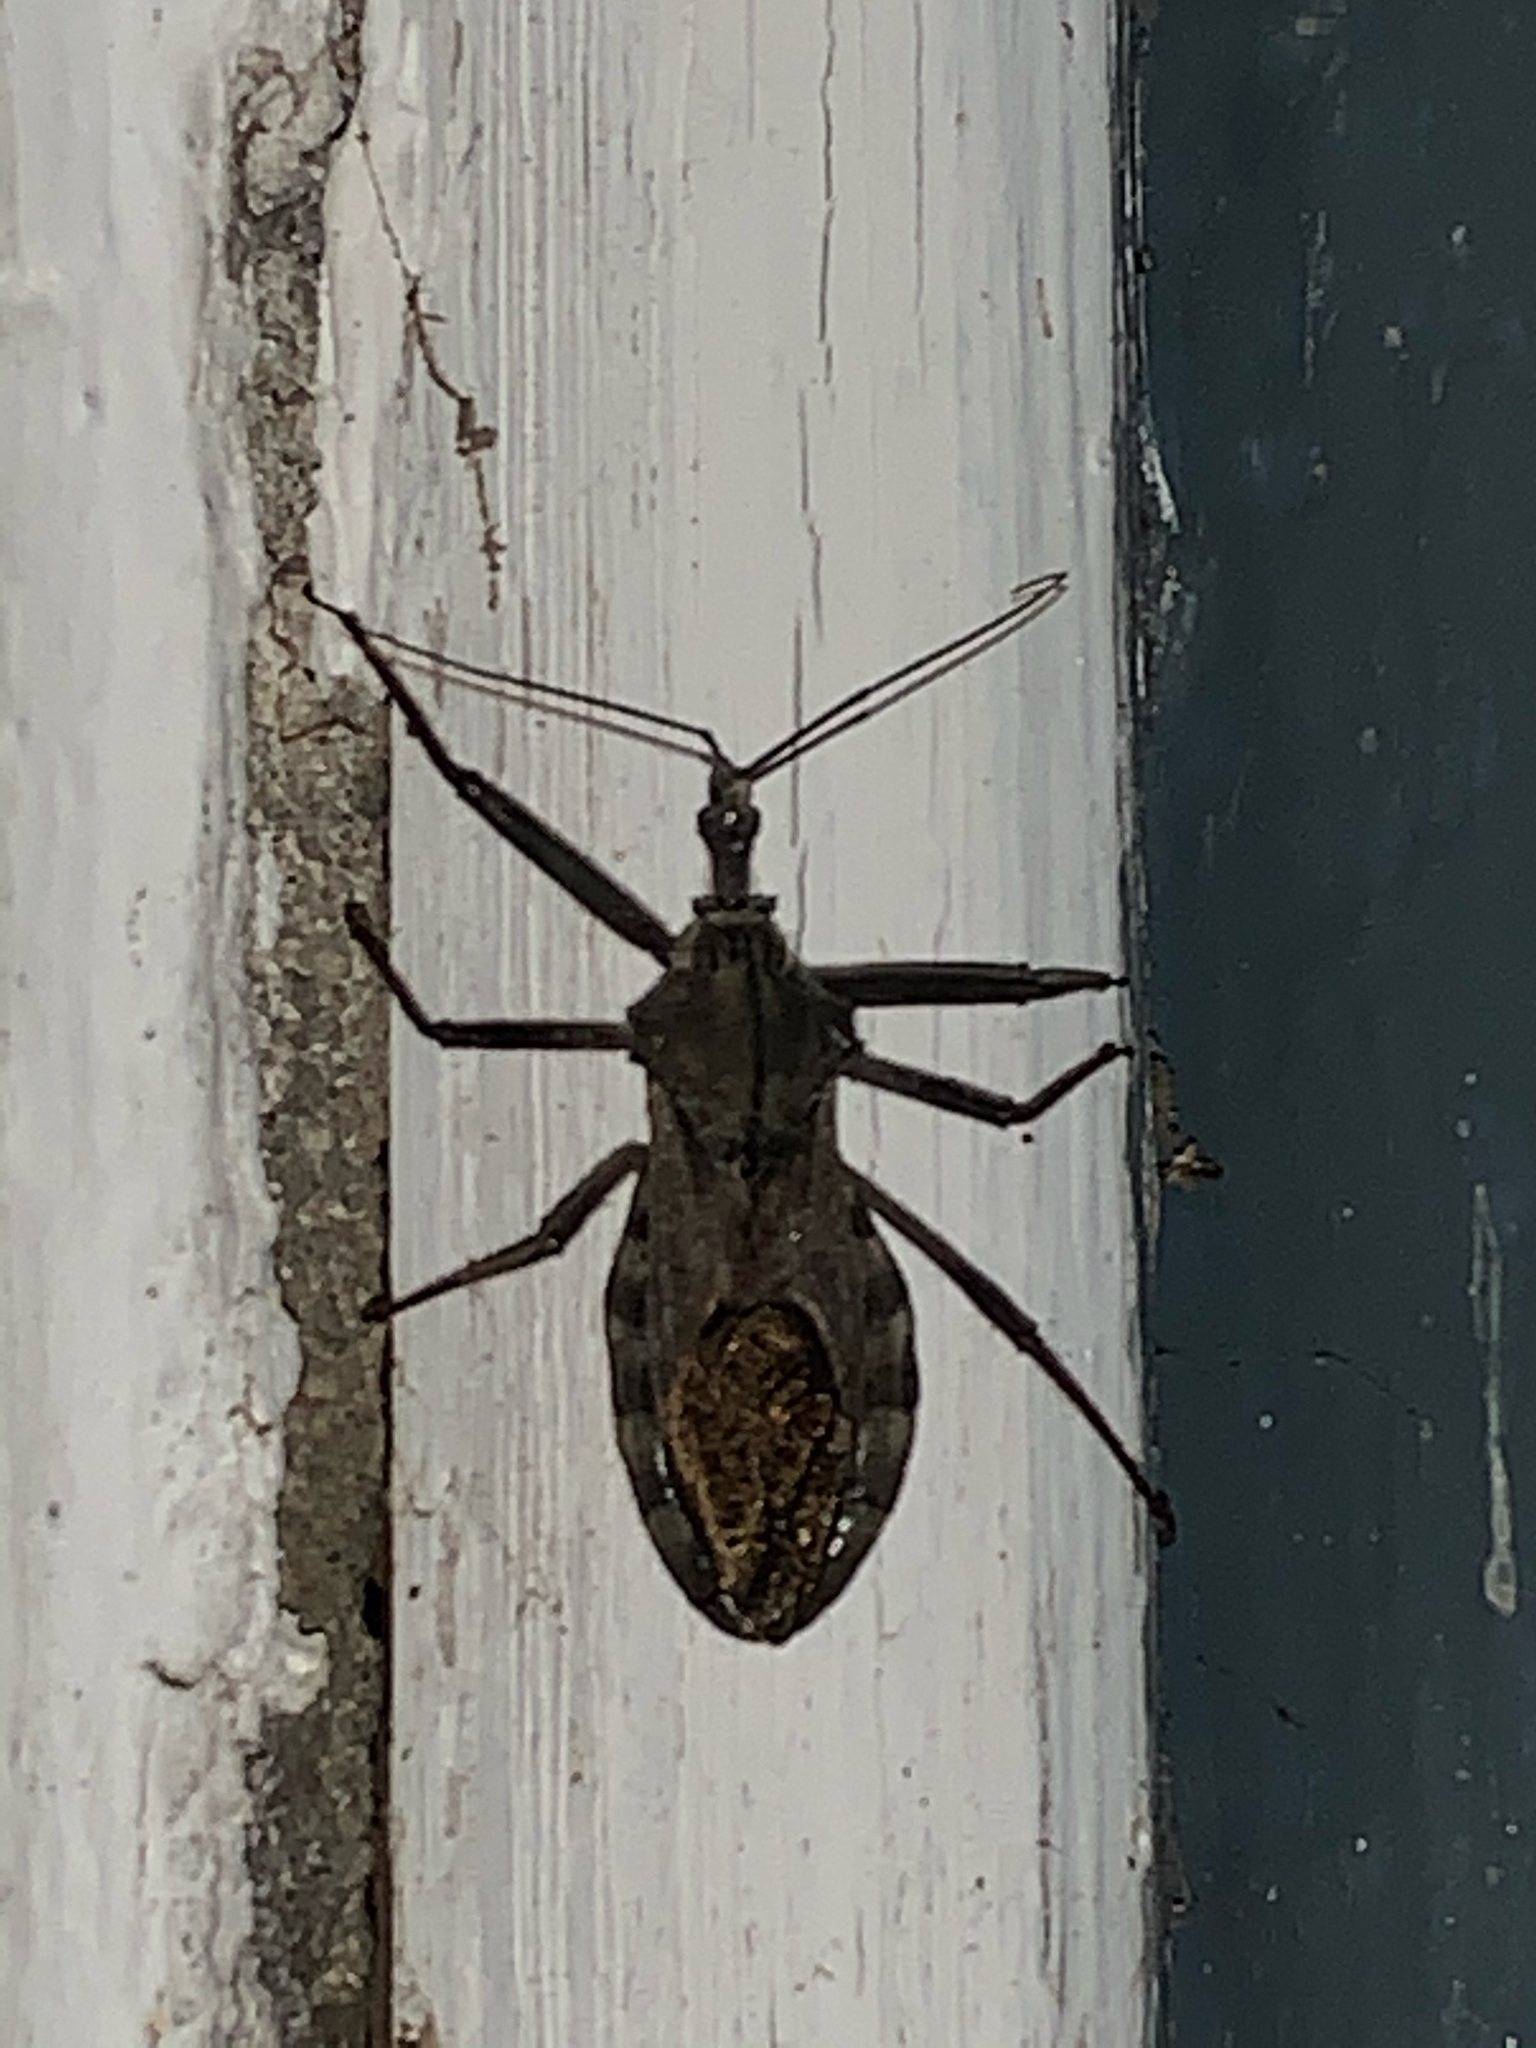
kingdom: Animalia
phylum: Arthropoda
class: Insecta
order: Hemiptera
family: Reduviidae
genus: Arilus
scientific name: Arilus cristatus
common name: North american wheel bug
